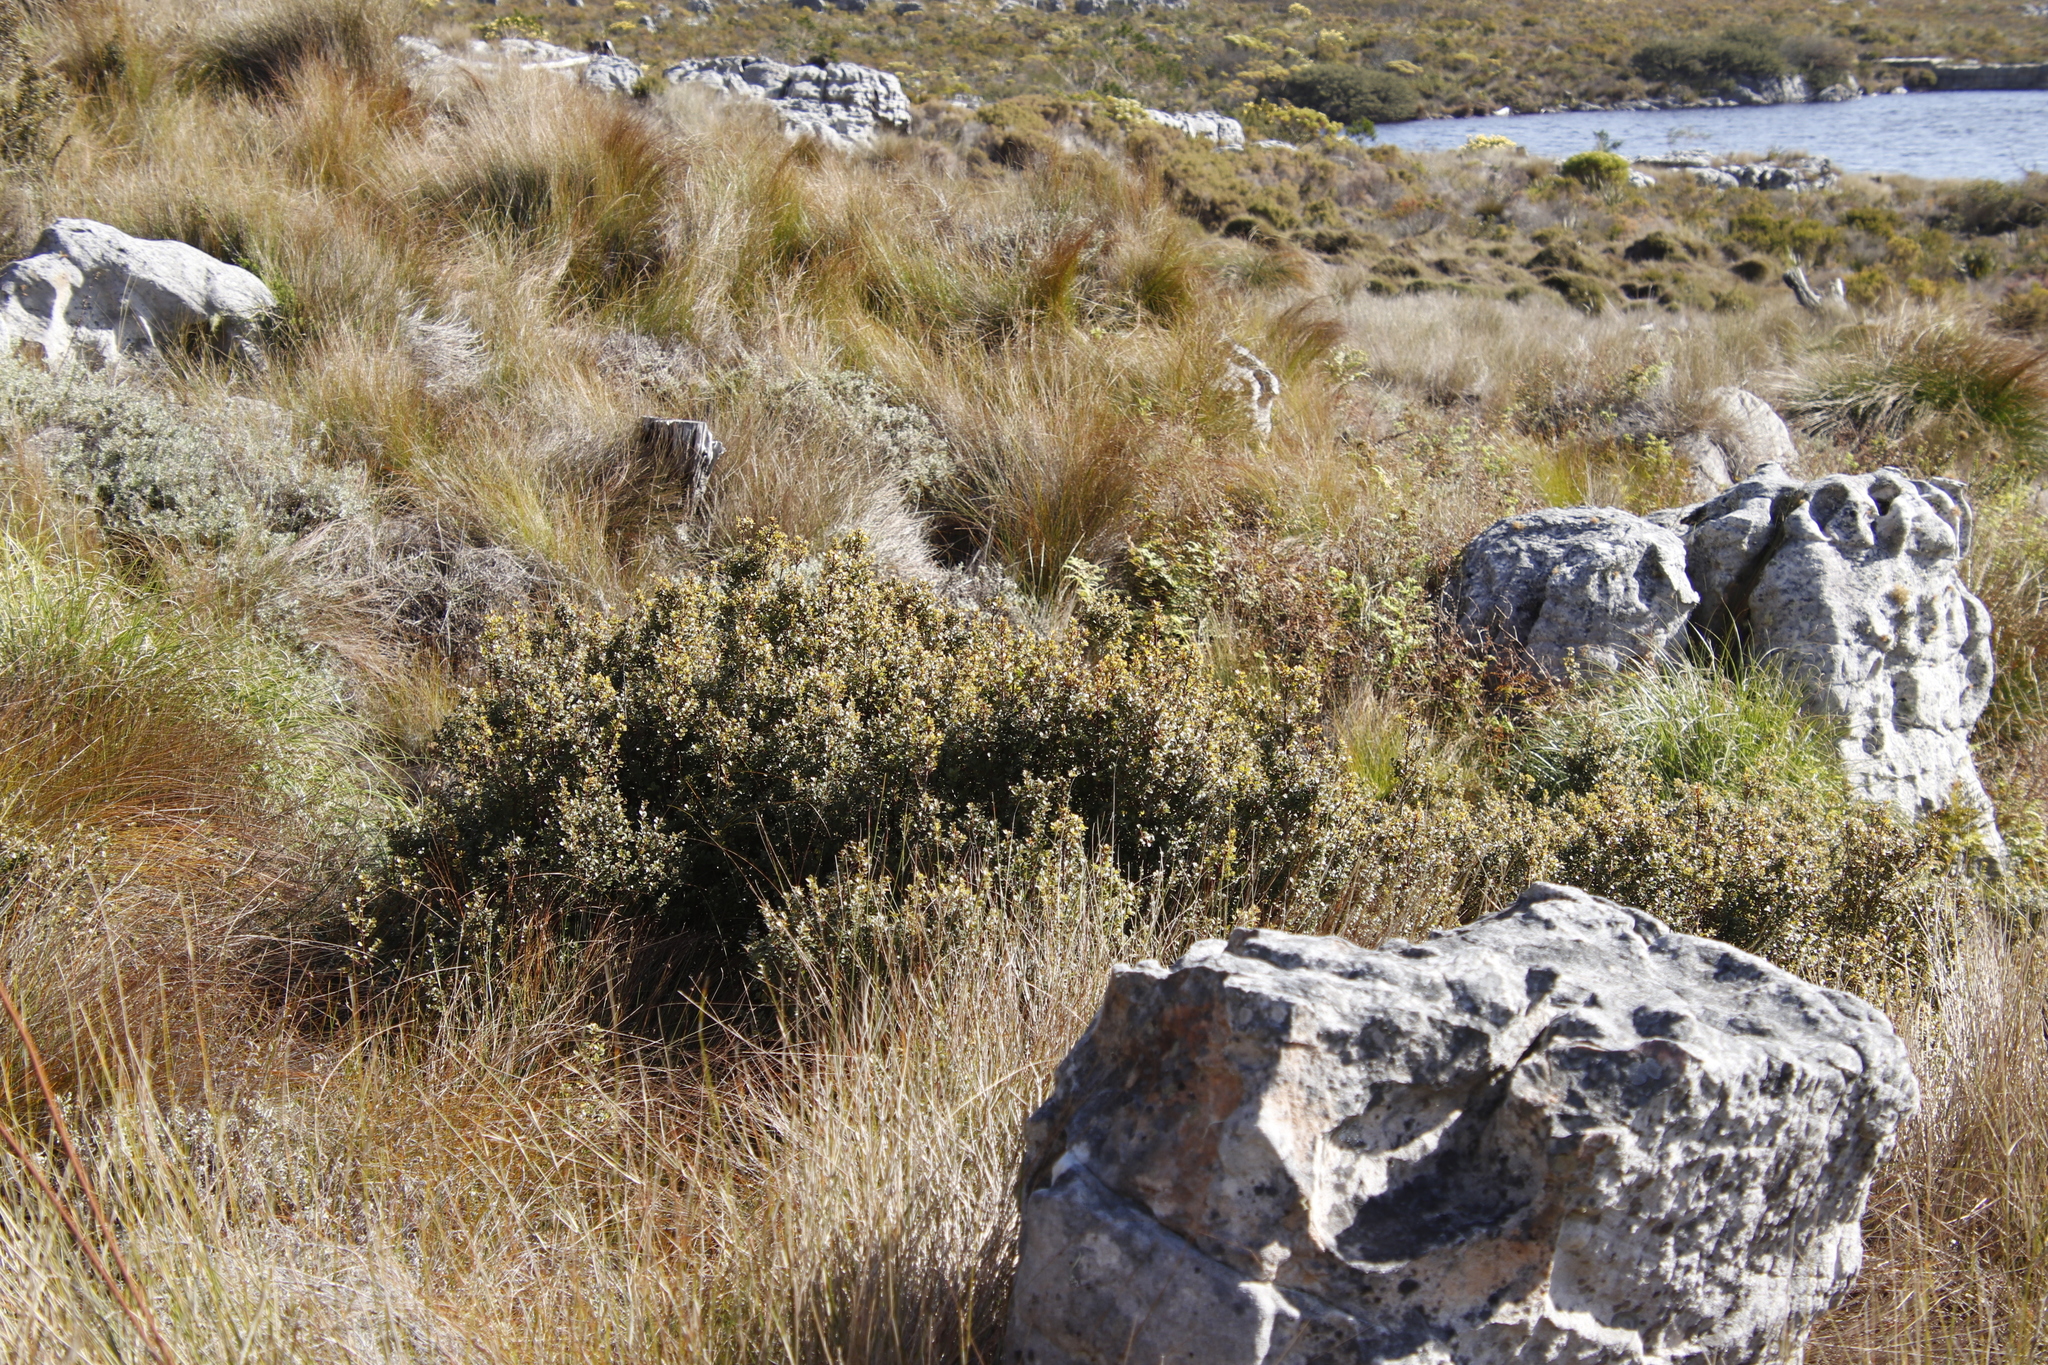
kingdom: Plantae
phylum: Tracheophyta
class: Magnoliopsida
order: Ericales
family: Primulaceae
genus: Myrsine
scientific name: Myrsine africana
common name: African-boxwood
